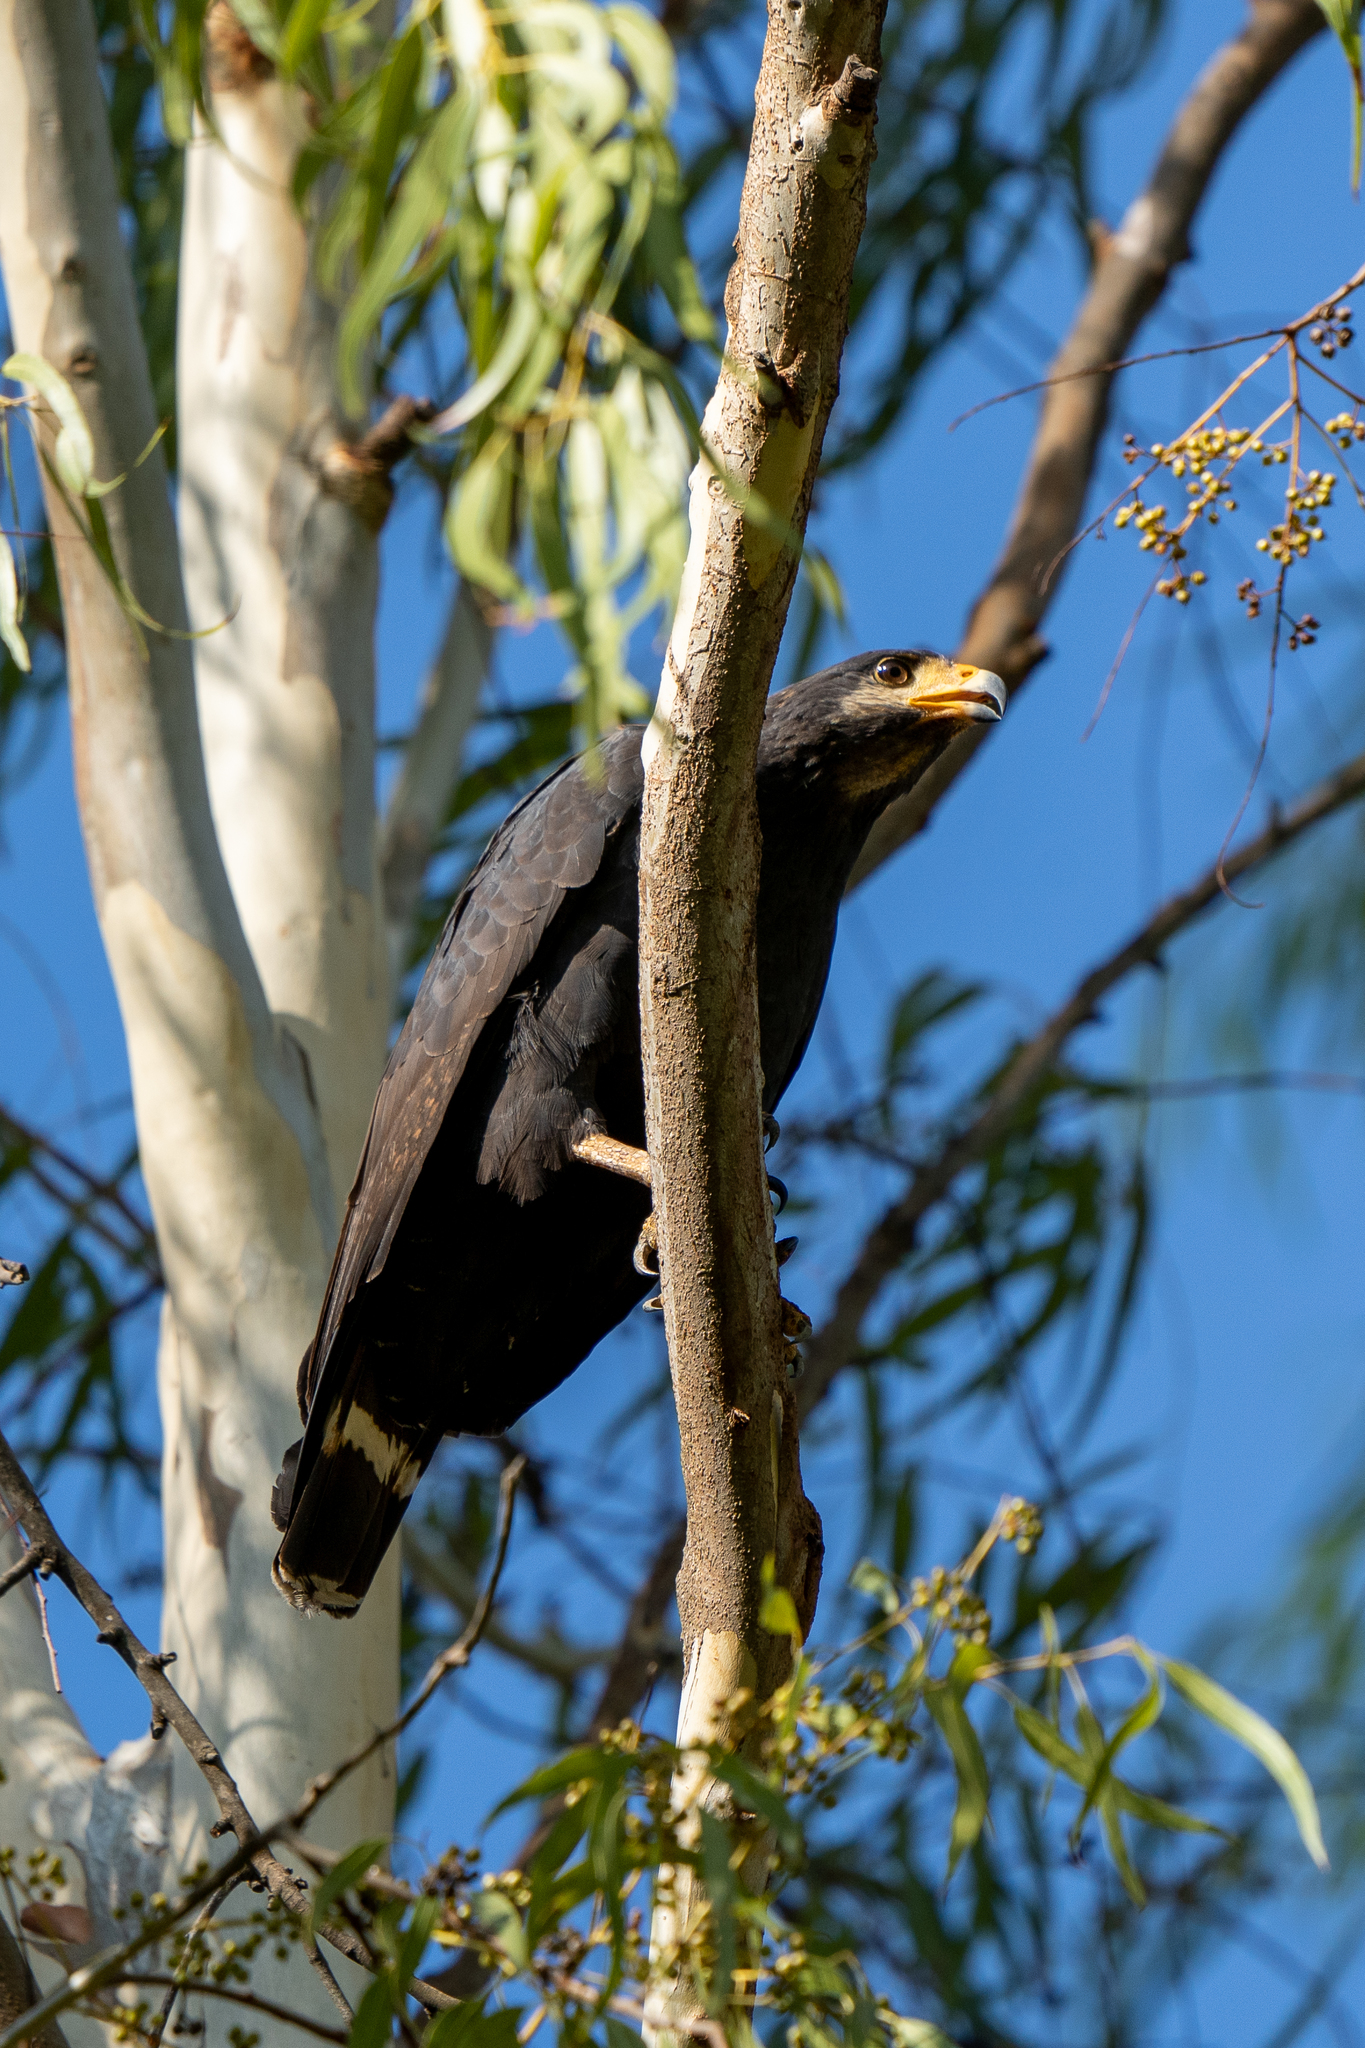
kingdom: Animalia
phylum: Chordata
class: Aves
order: Accipitriformes
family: Accipitridae
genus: Buteogallus
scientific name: Buteogallus anthracinus
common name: Common black hawk
